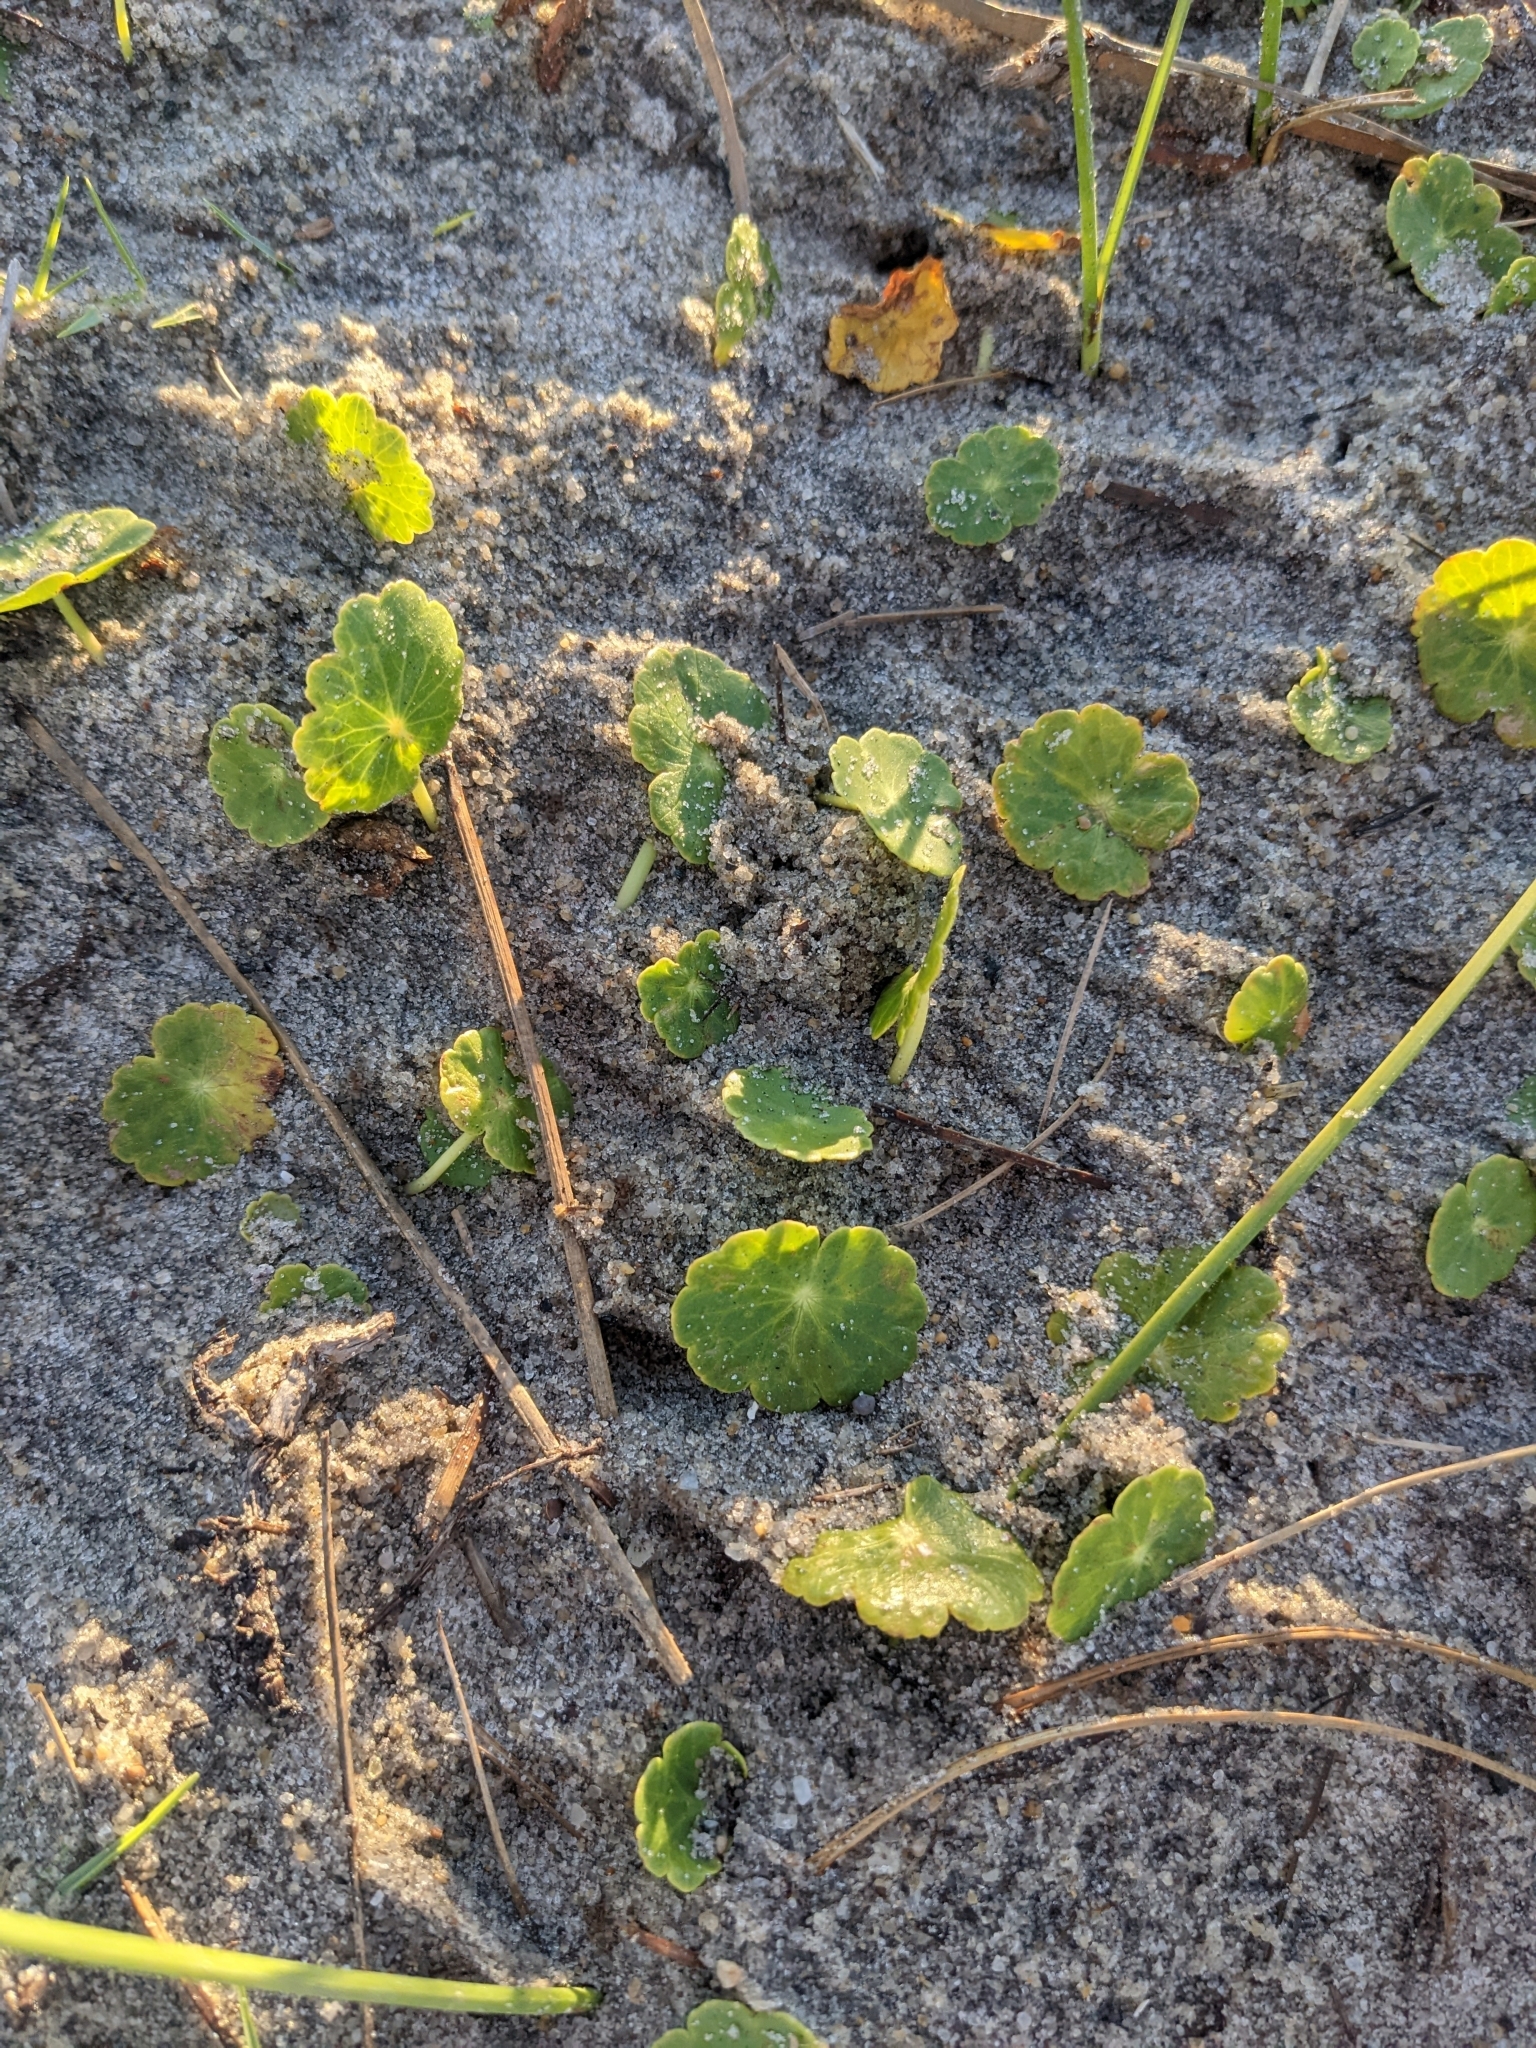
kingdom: Plantae
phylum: Tracheophyta
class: Magnoliopsida
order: Apiales
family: Araliaceae
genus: Hydrocotyle
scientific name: Hydrocotyle bonariensis
